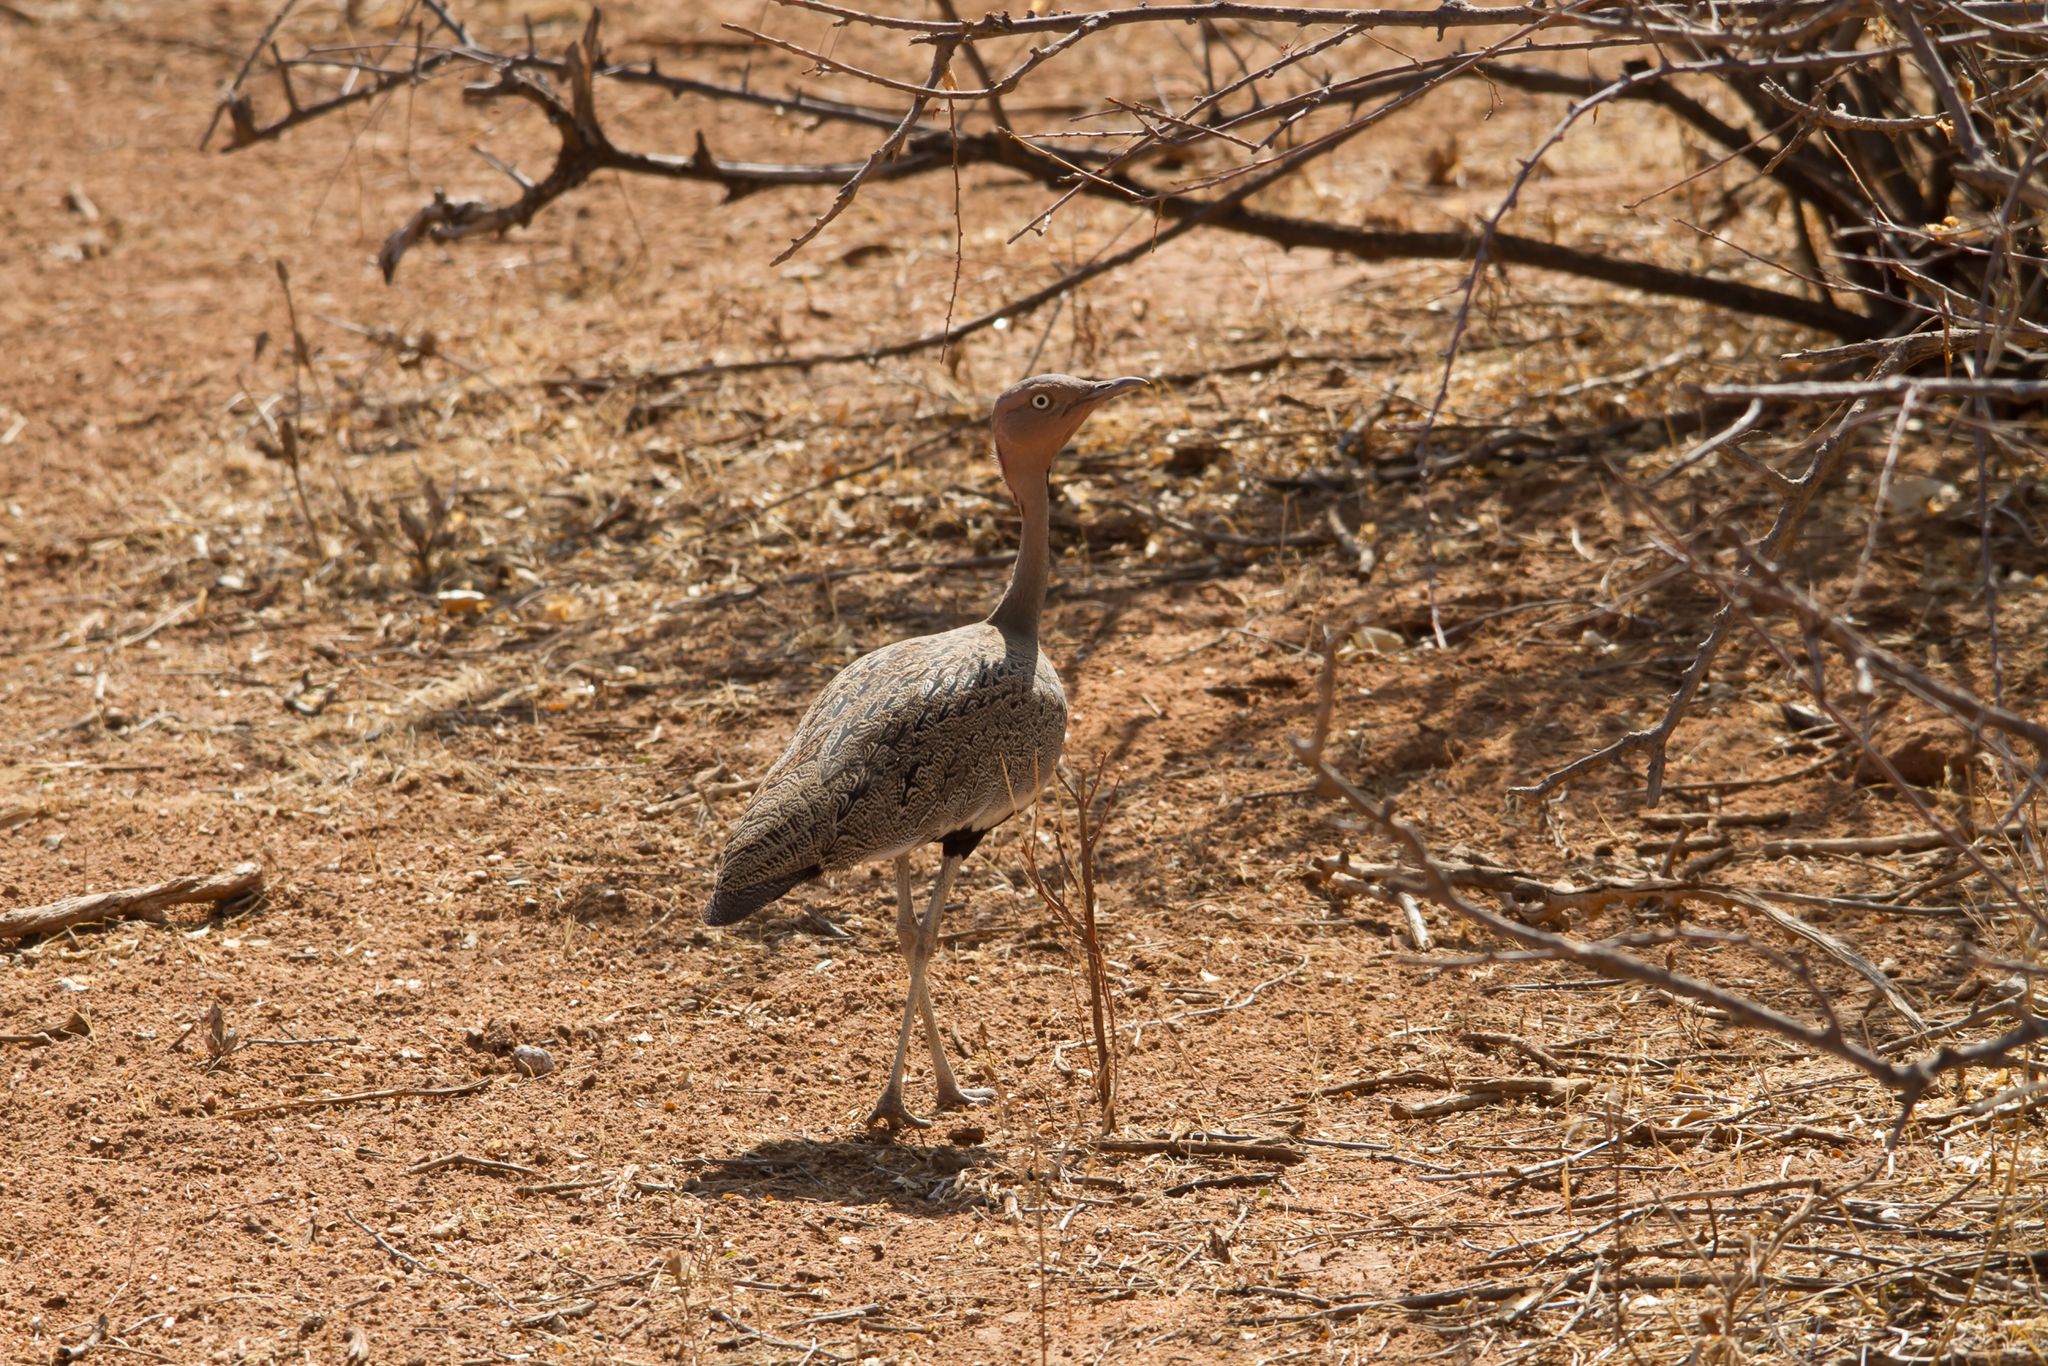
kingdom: Animalia
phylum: Chordata
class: Aves
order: Otidiformes
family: Otididae
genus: Lophotis
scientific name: Lophotis gindiana
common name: Buff-crested bustard
